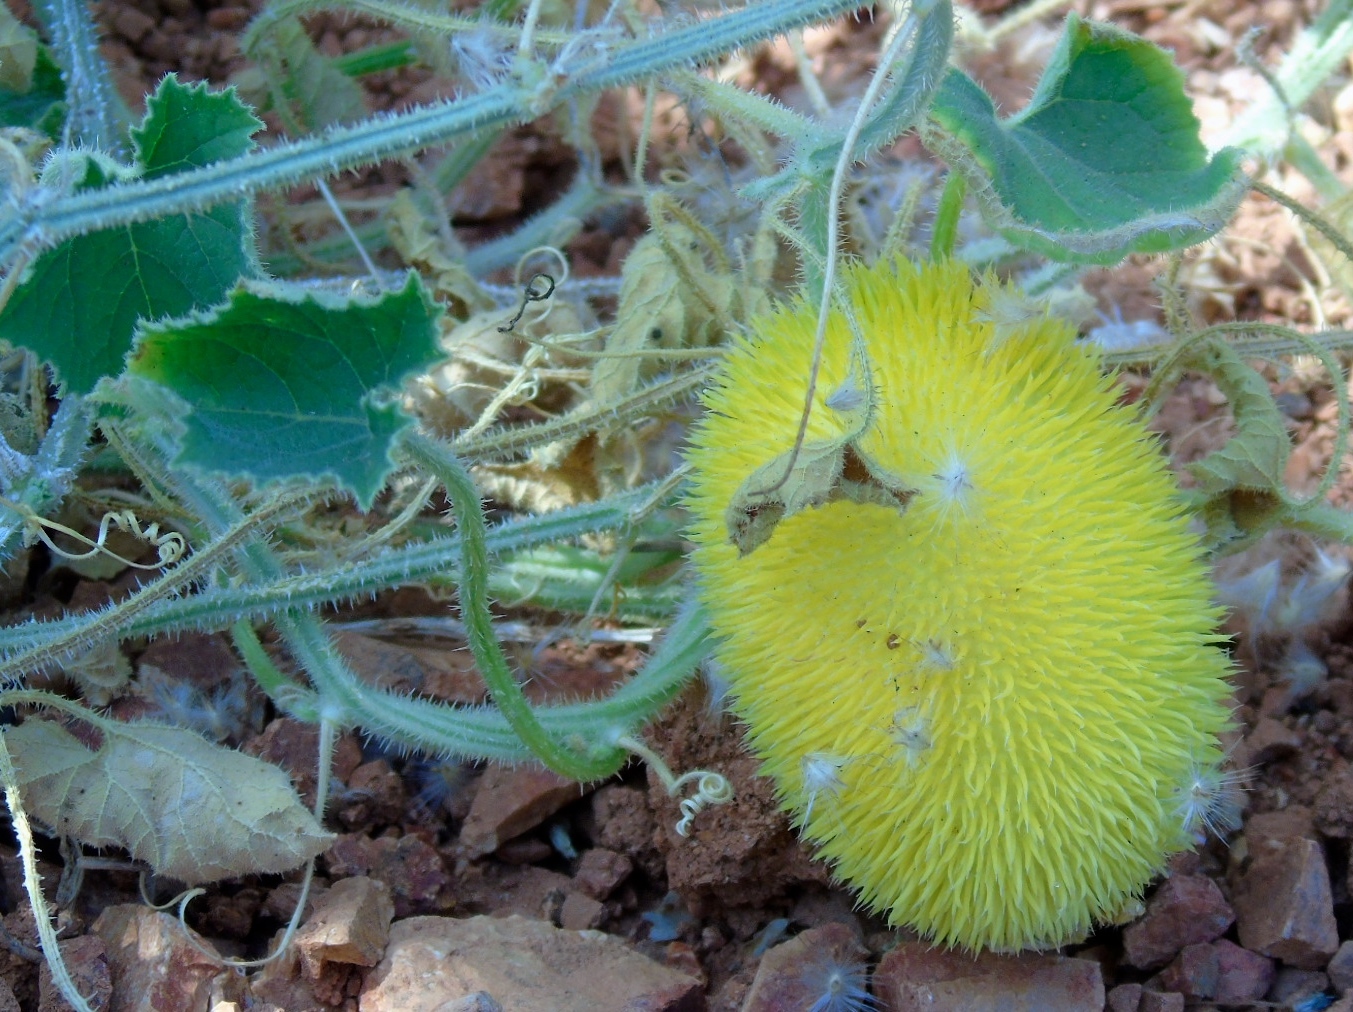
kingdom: Plantae
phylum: Tracheophyta
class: Magnoliopsida
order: Cucurbitales
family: Cucurbitaceae
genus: Cucumis
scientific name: Cucumis dipsaceus
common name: Hedgehog gourd
